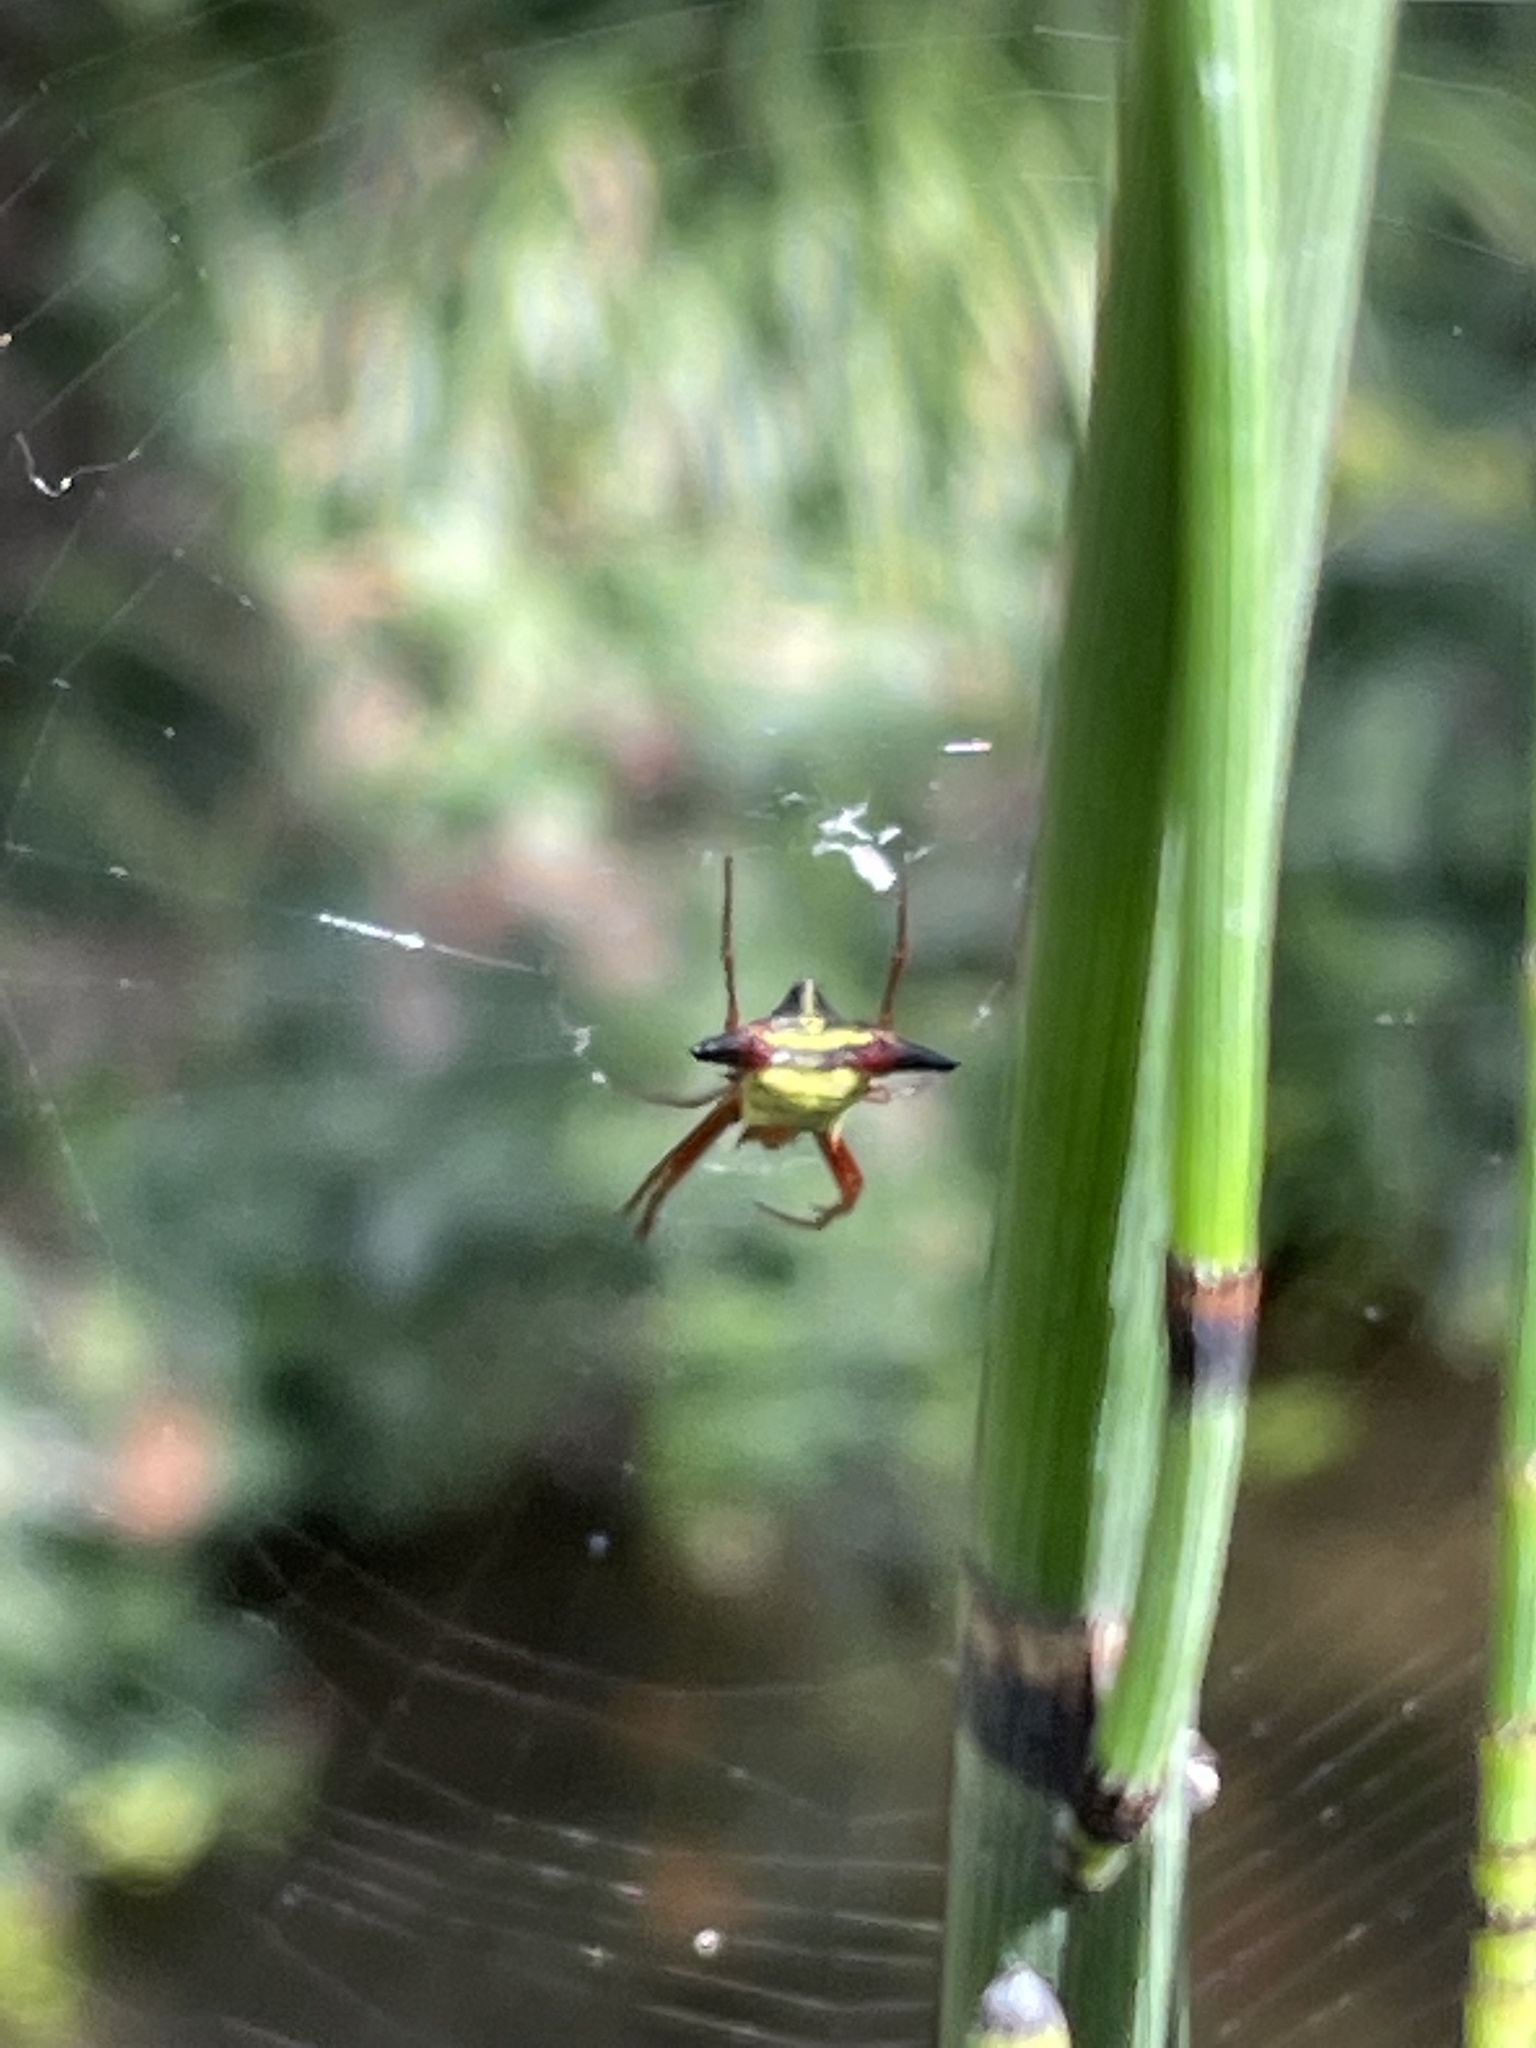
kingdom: Animalia
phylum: Arthropoda
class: Arachnida
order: Araneae
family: Araneidae
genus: Micrathena
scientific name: Micrathena sagittata
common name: Orb weavers
